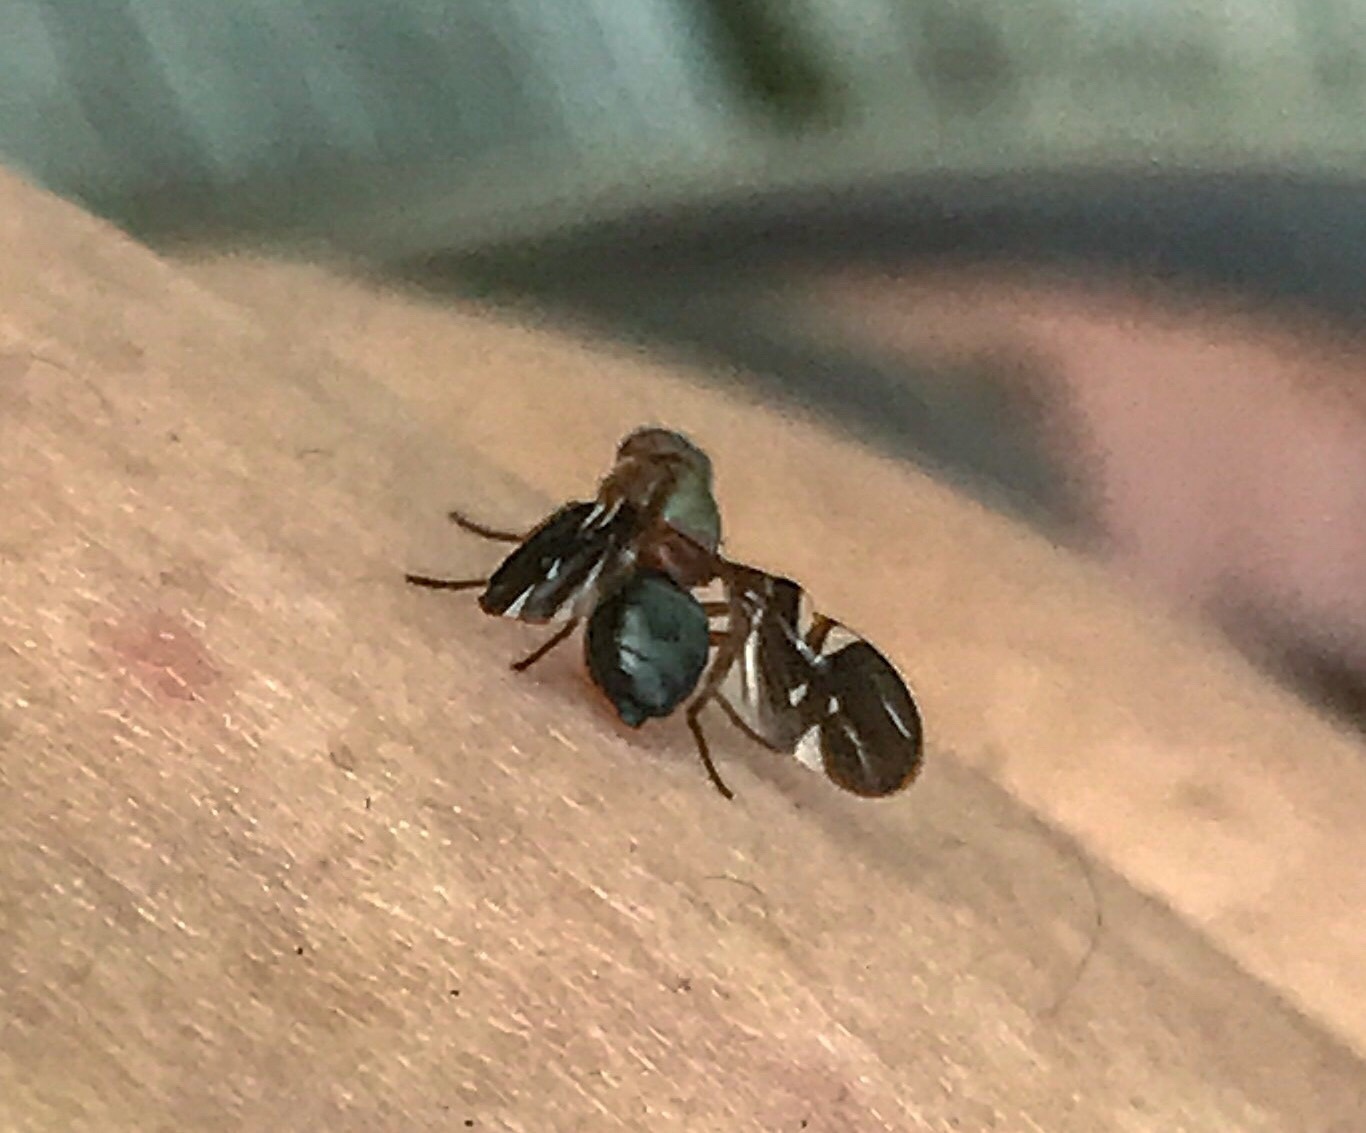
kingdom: Animalia
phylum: Arthropoda
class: Insecta
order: Diptera
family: Ulidiidae
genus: Delphinia
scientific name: Delphinia picta
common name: Common picture-winged fly
